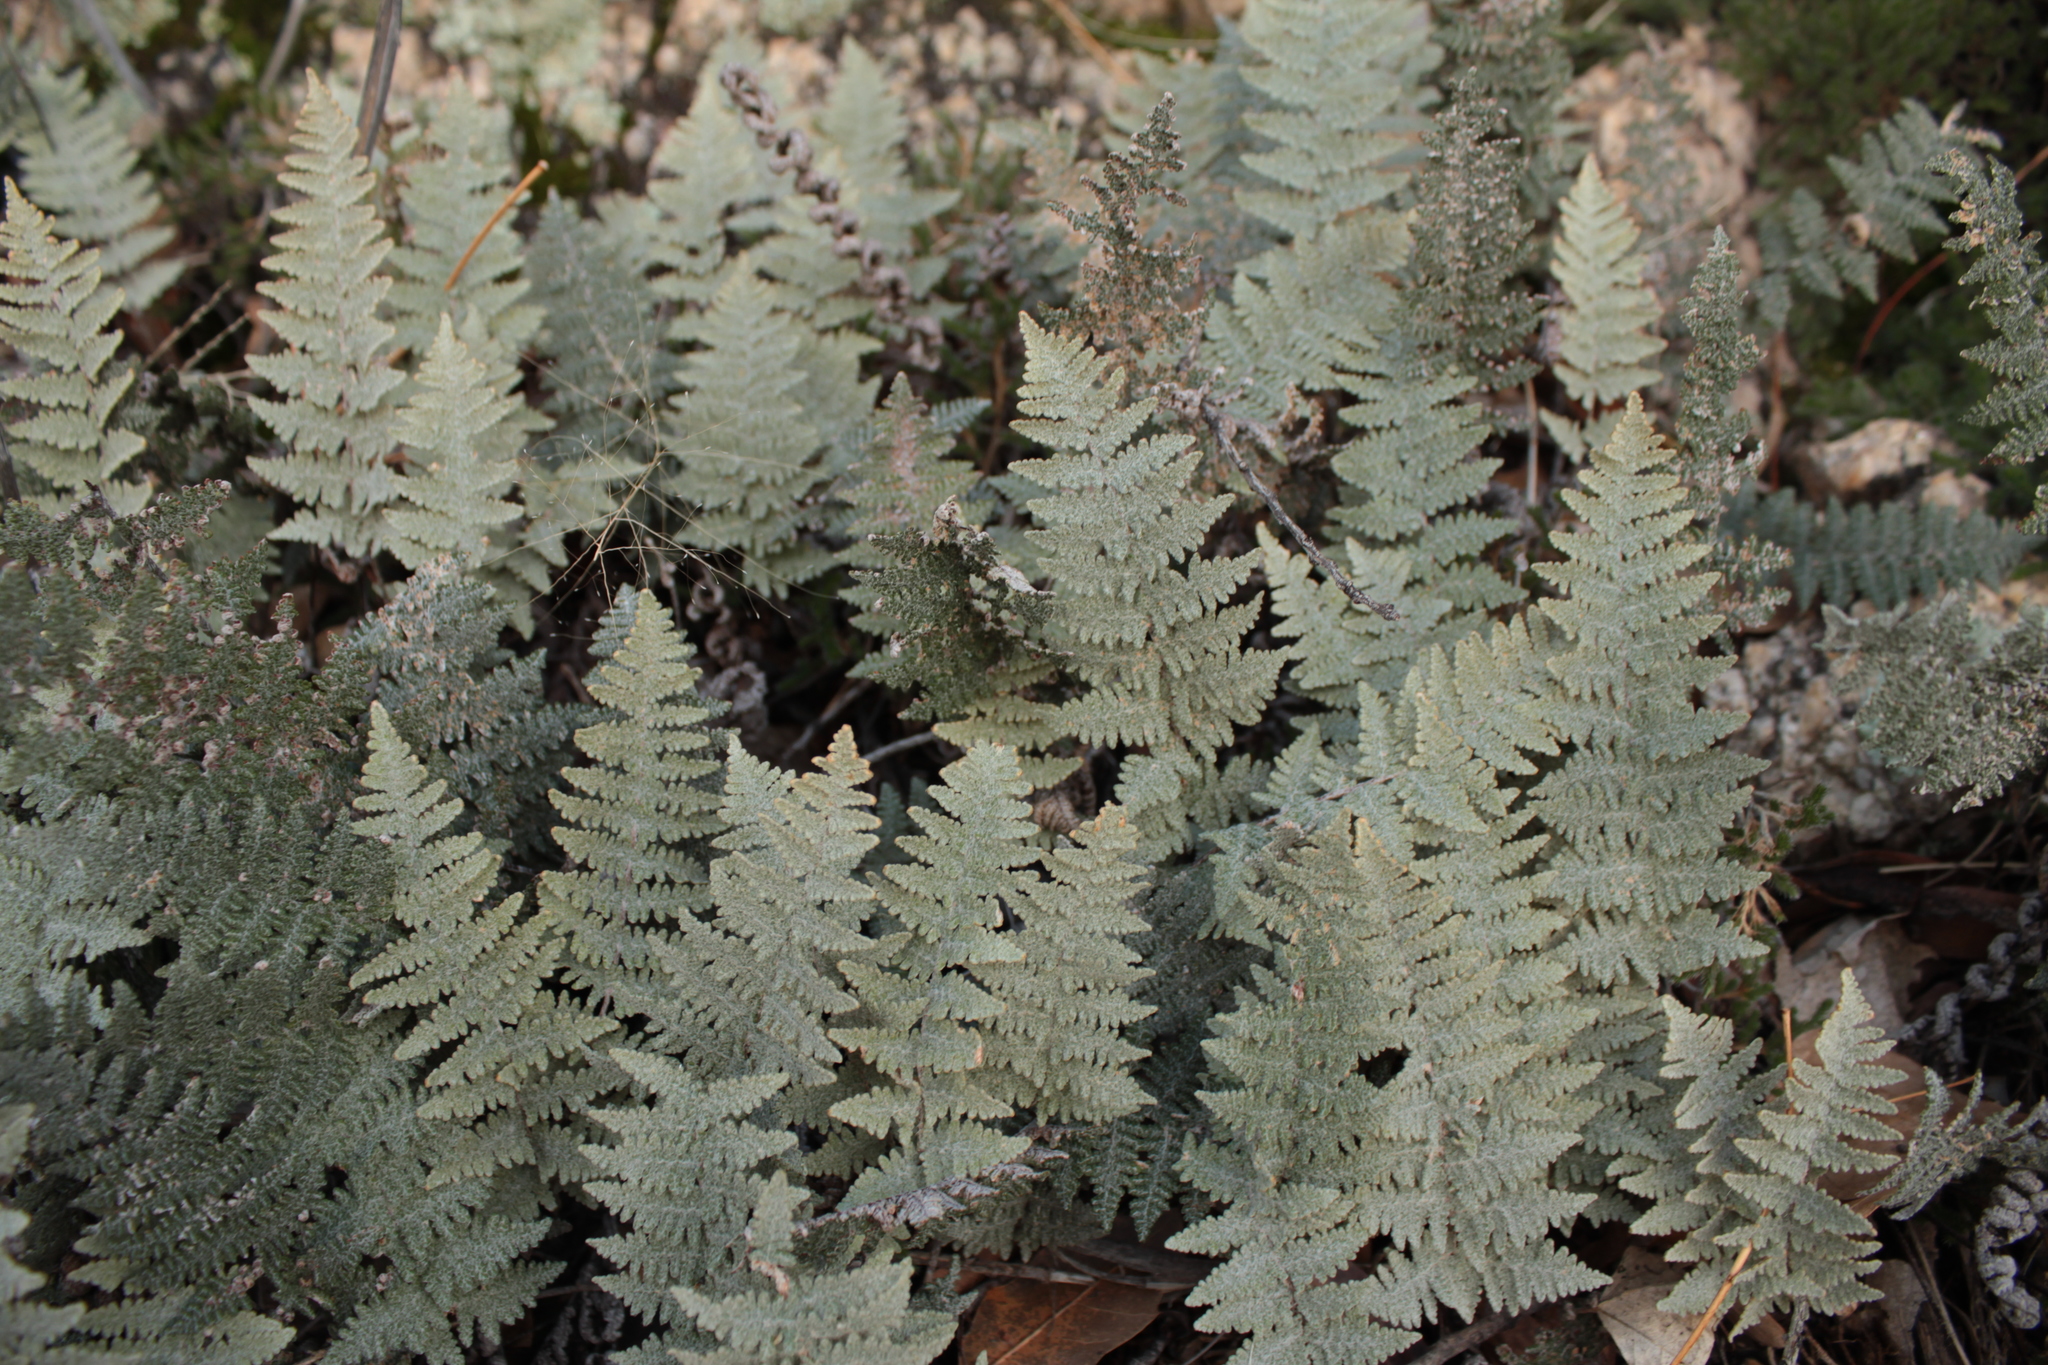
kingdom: Plantae
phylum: Tracheophyta
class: Polypodiopsida
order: Polypodiales
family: Pteridaceae
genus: Myriopteris
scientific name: Myriopteris lindheimeri
